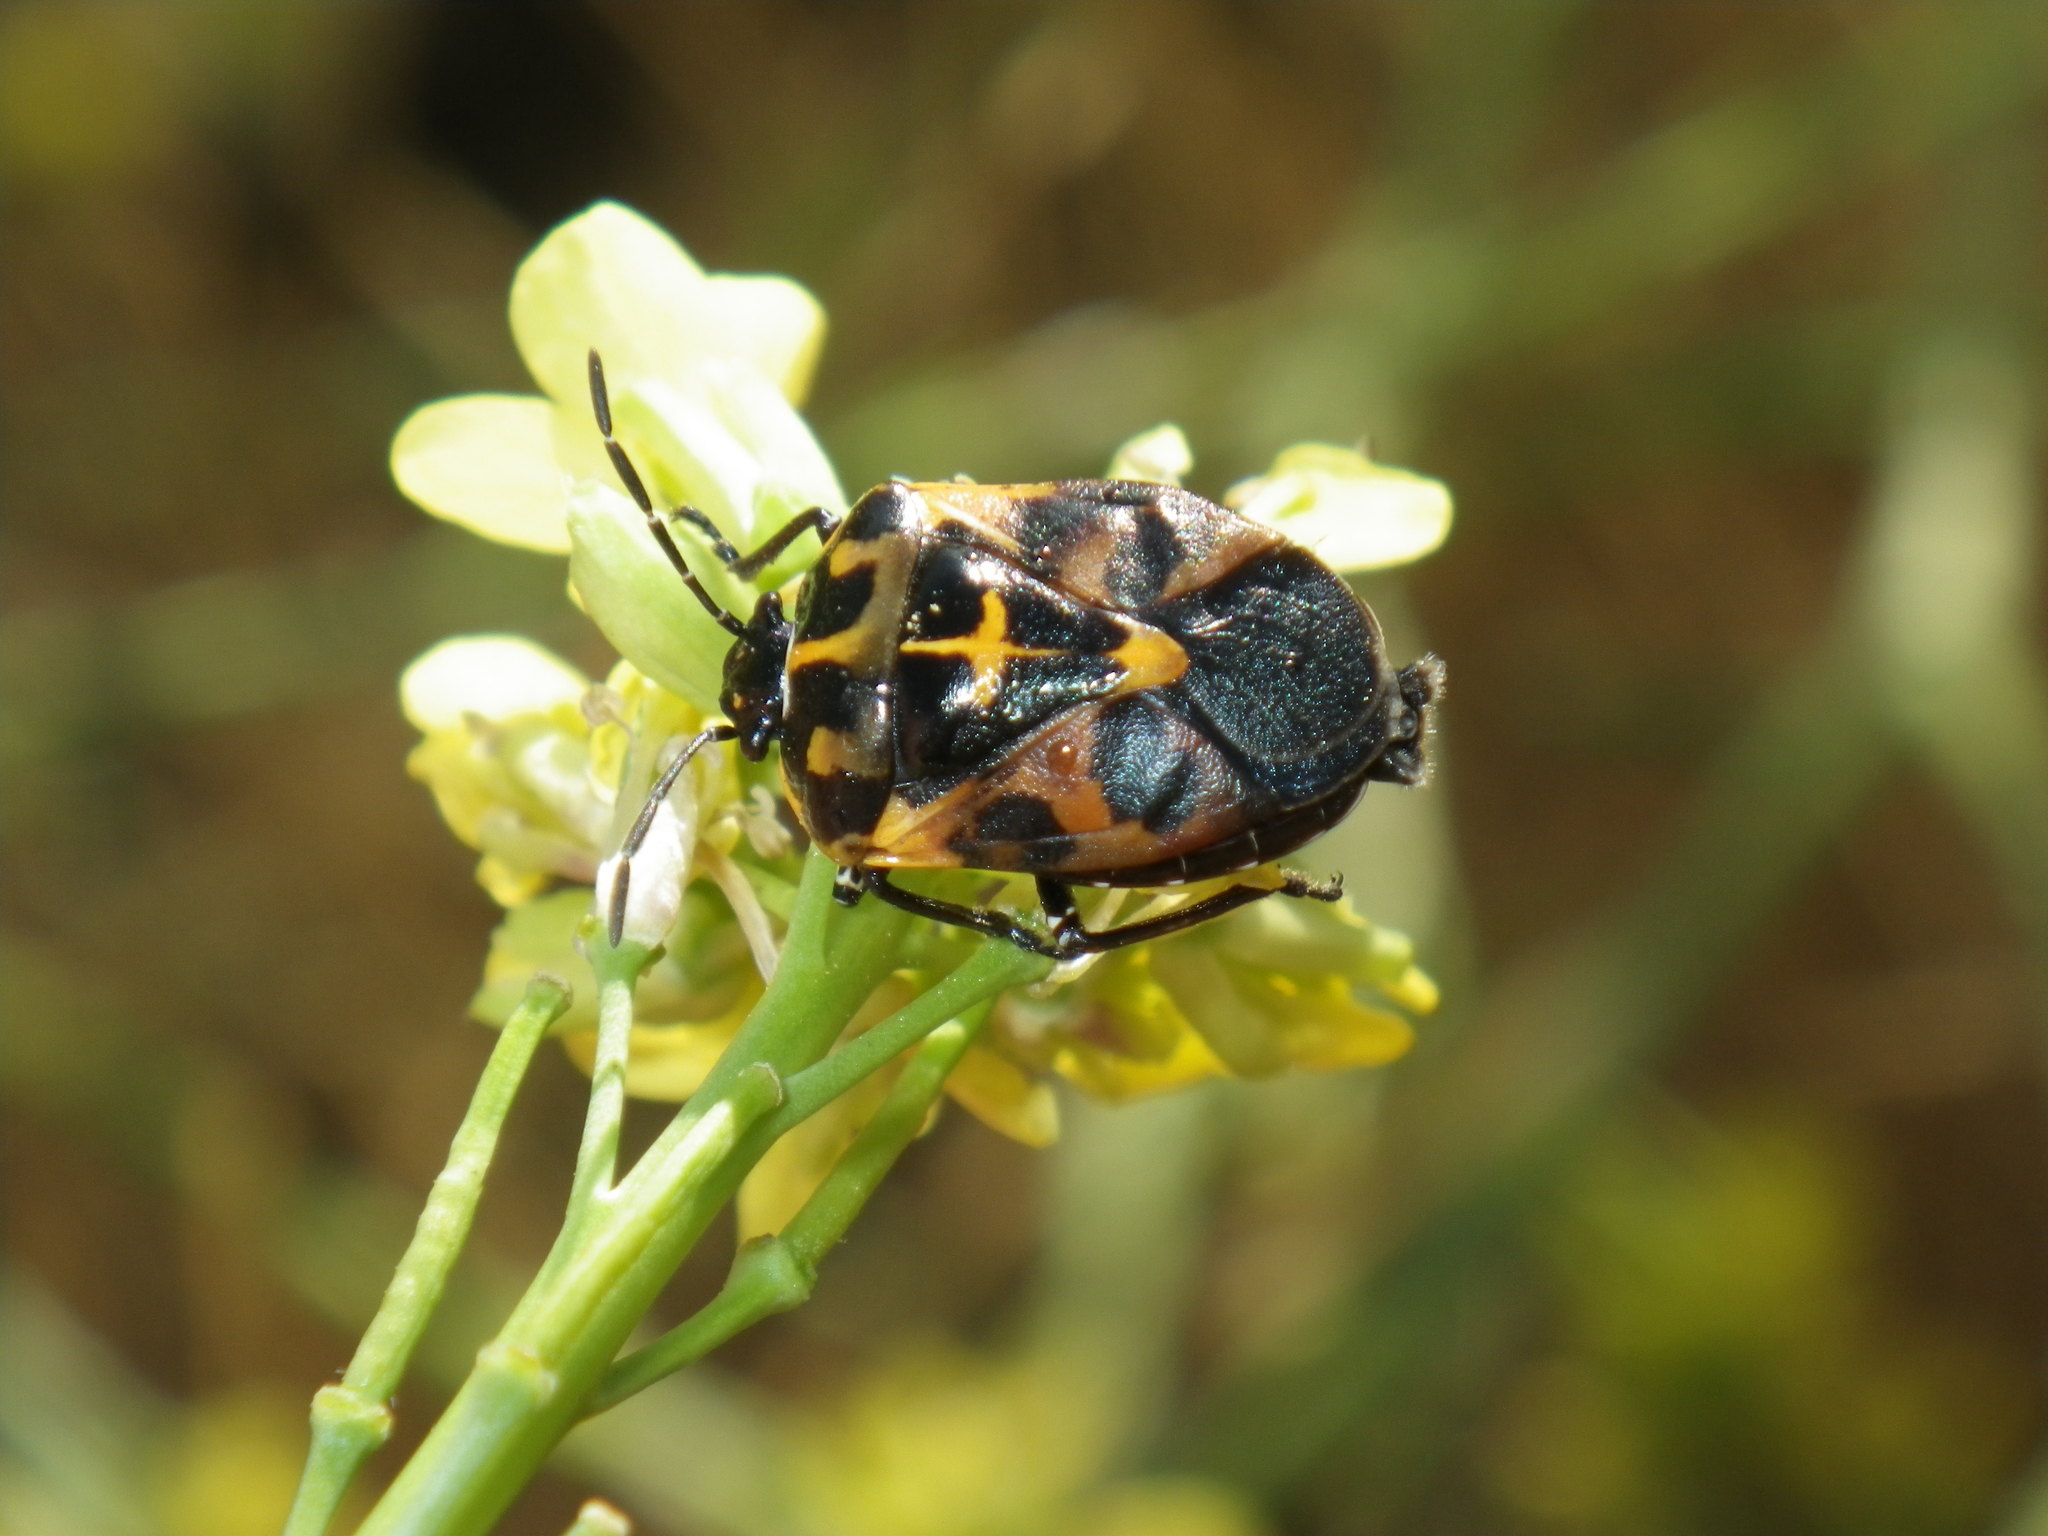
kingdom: Animalia
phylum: Arthropoda
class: Insecta
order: Hemiptera
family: Pentatomidae
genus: Murgantia
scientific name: Murgantia histrionica
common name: Harlequin bug
